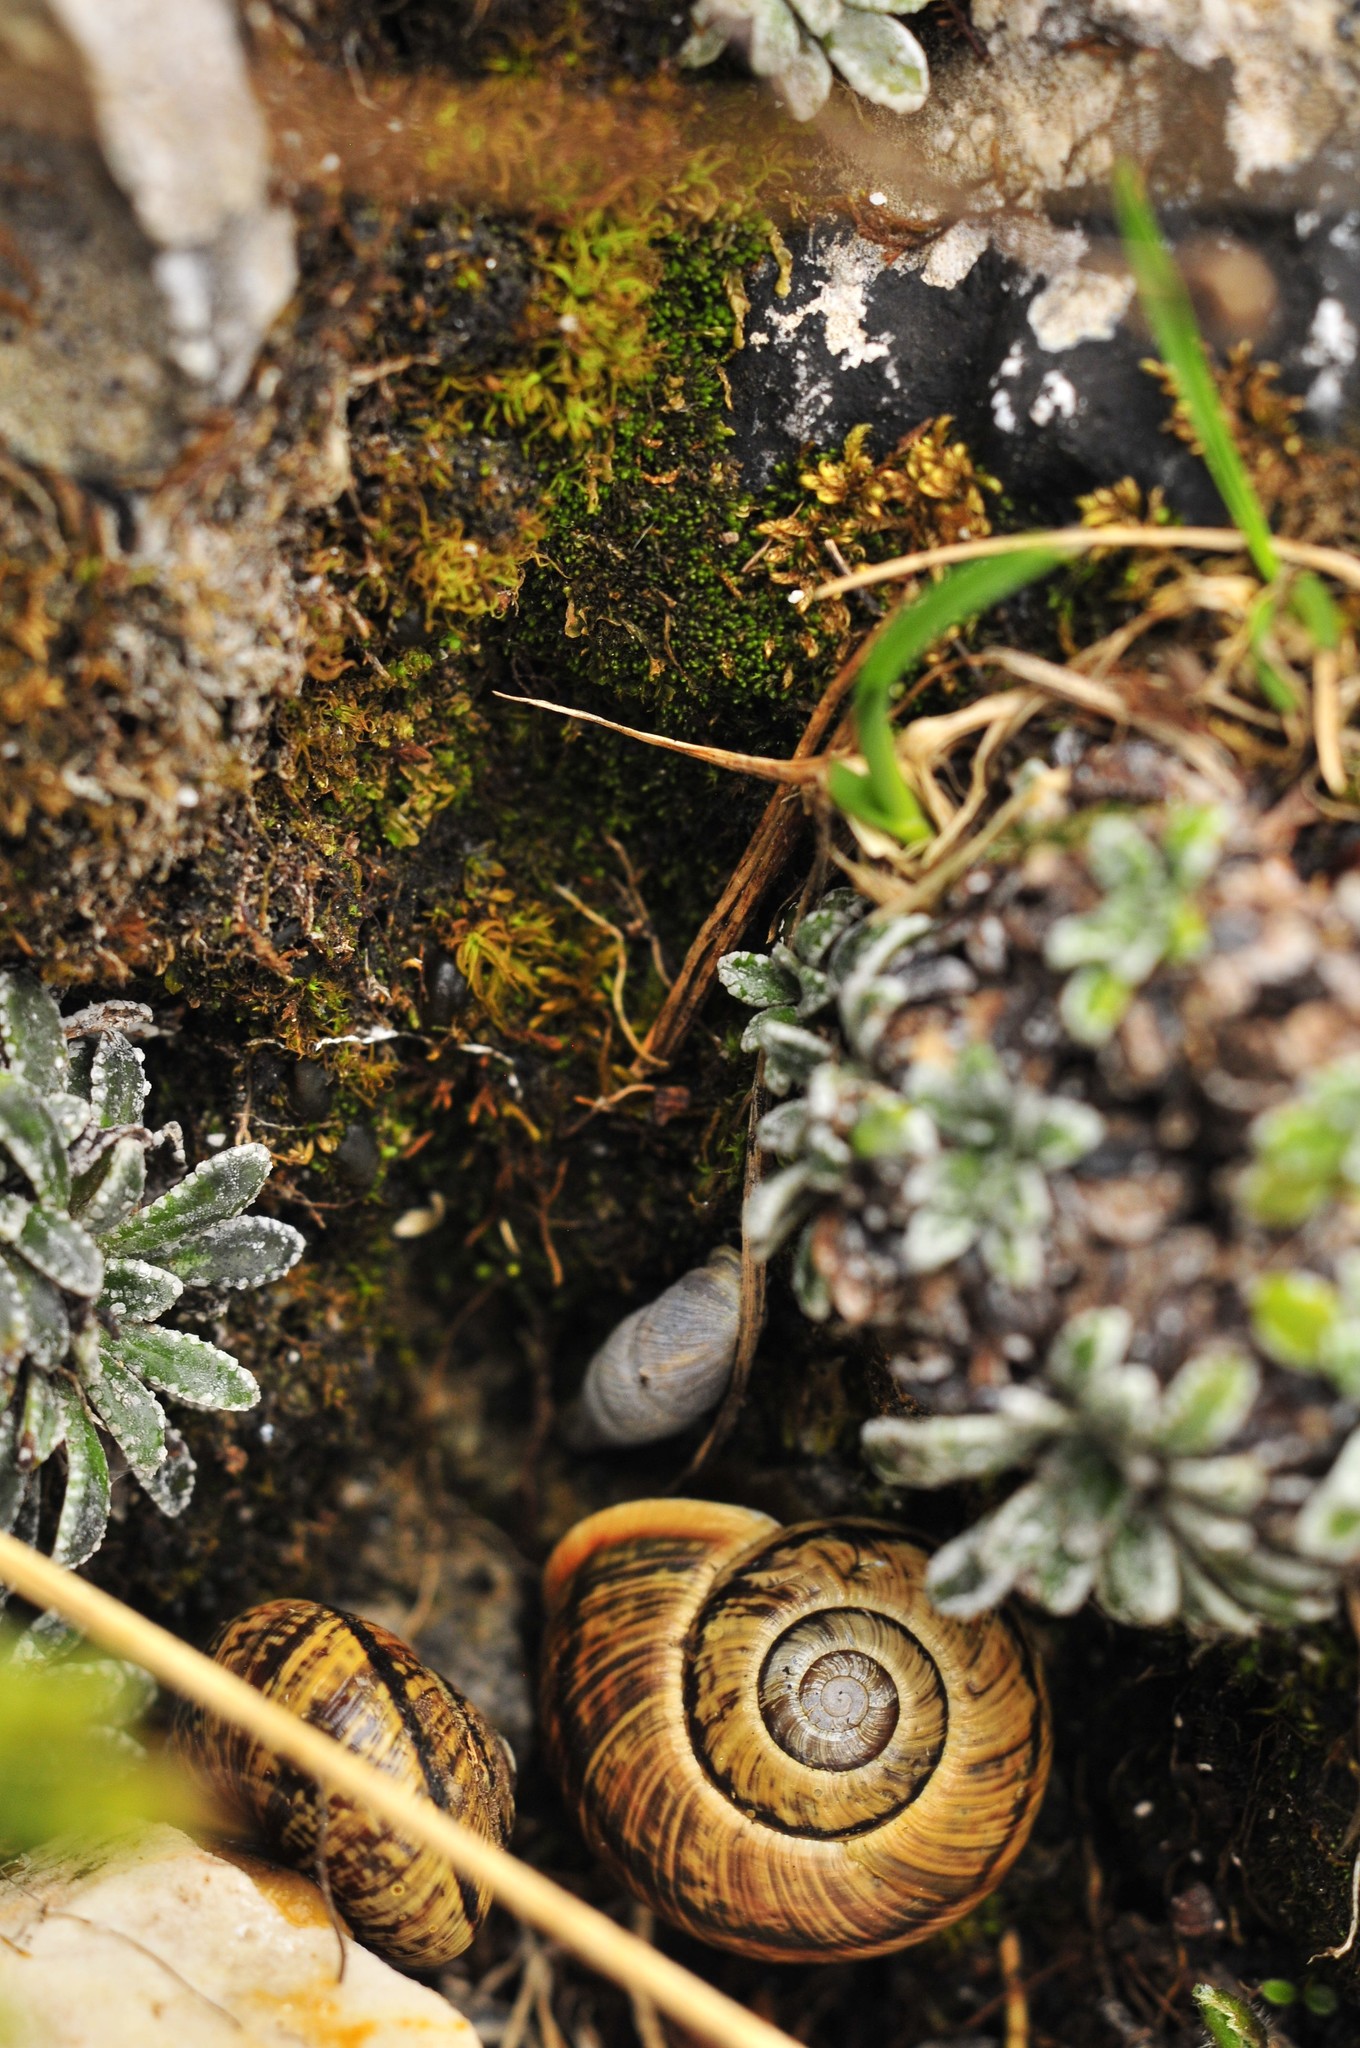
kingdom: Animalia
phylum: Mollusca
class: Gastropoda
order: Stylommatophora
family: Helicidae
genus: Arianta
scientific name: Arianta arbustorum
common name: Copse snail
